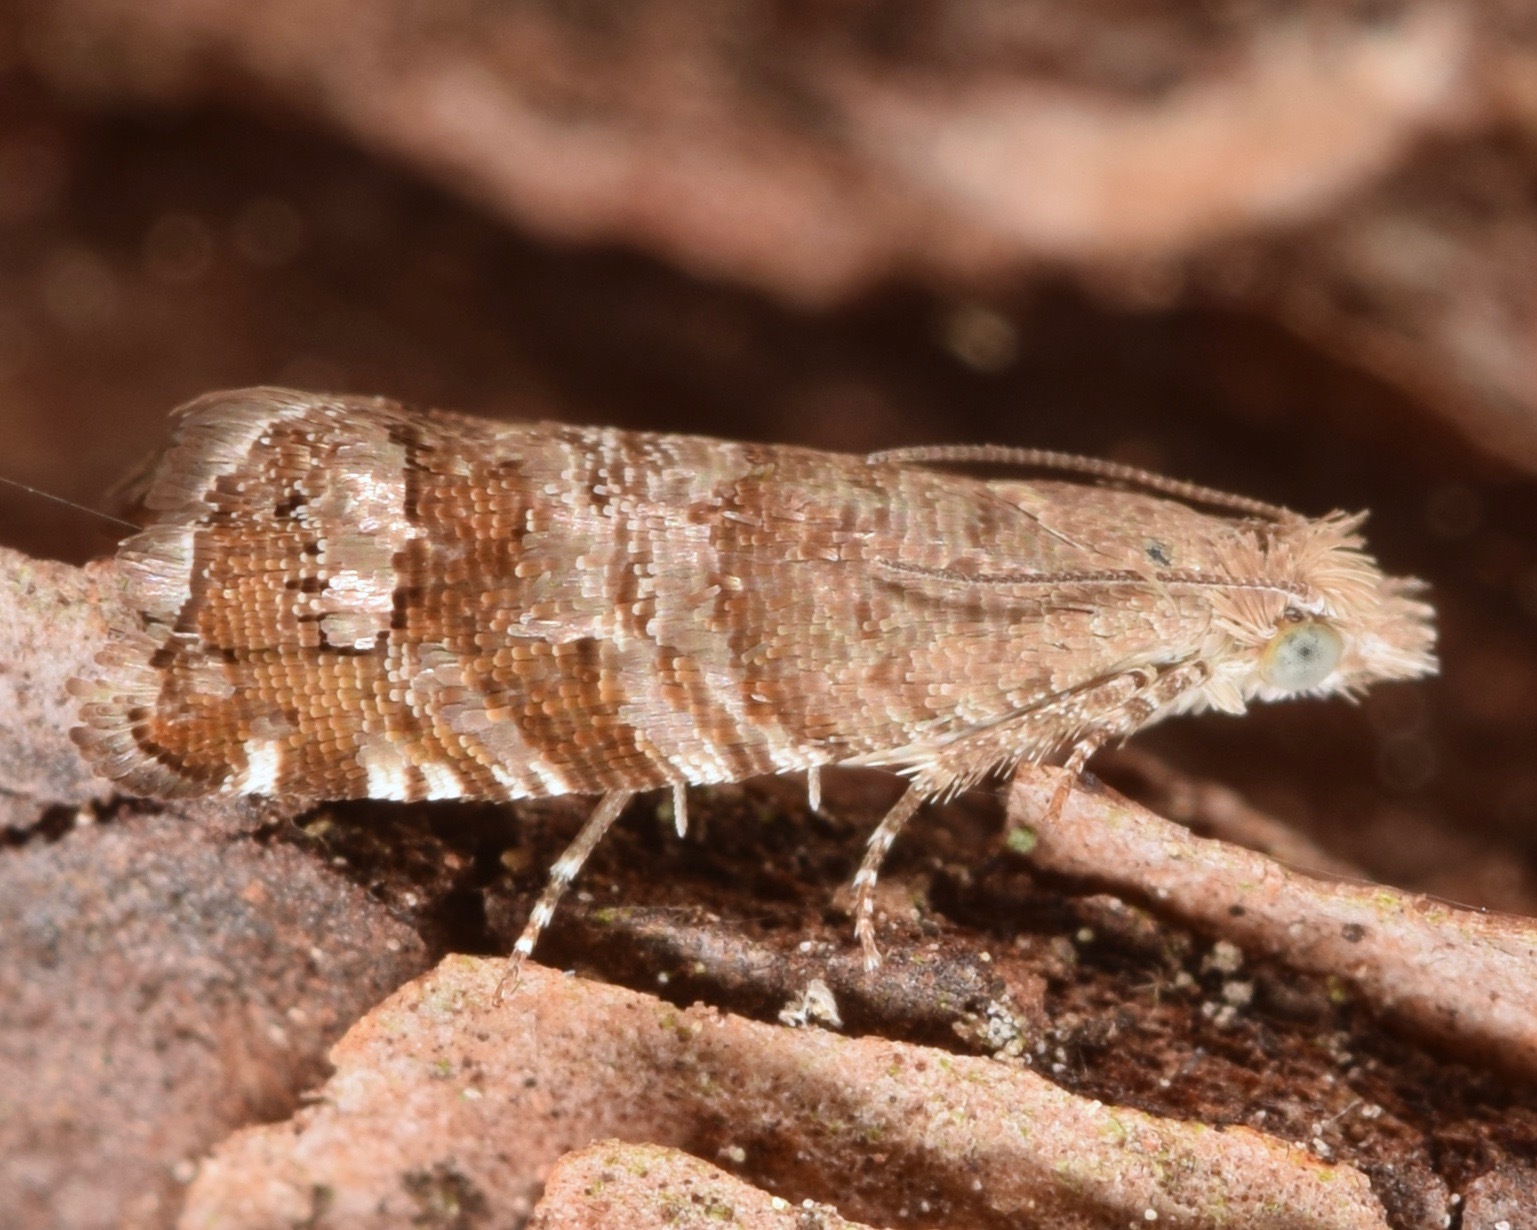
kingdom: Animalia
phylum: Arthropoda
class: Insecta
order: Lepidoptera
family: Tortricidae
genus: Satronia
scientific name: Satronia tantilla
